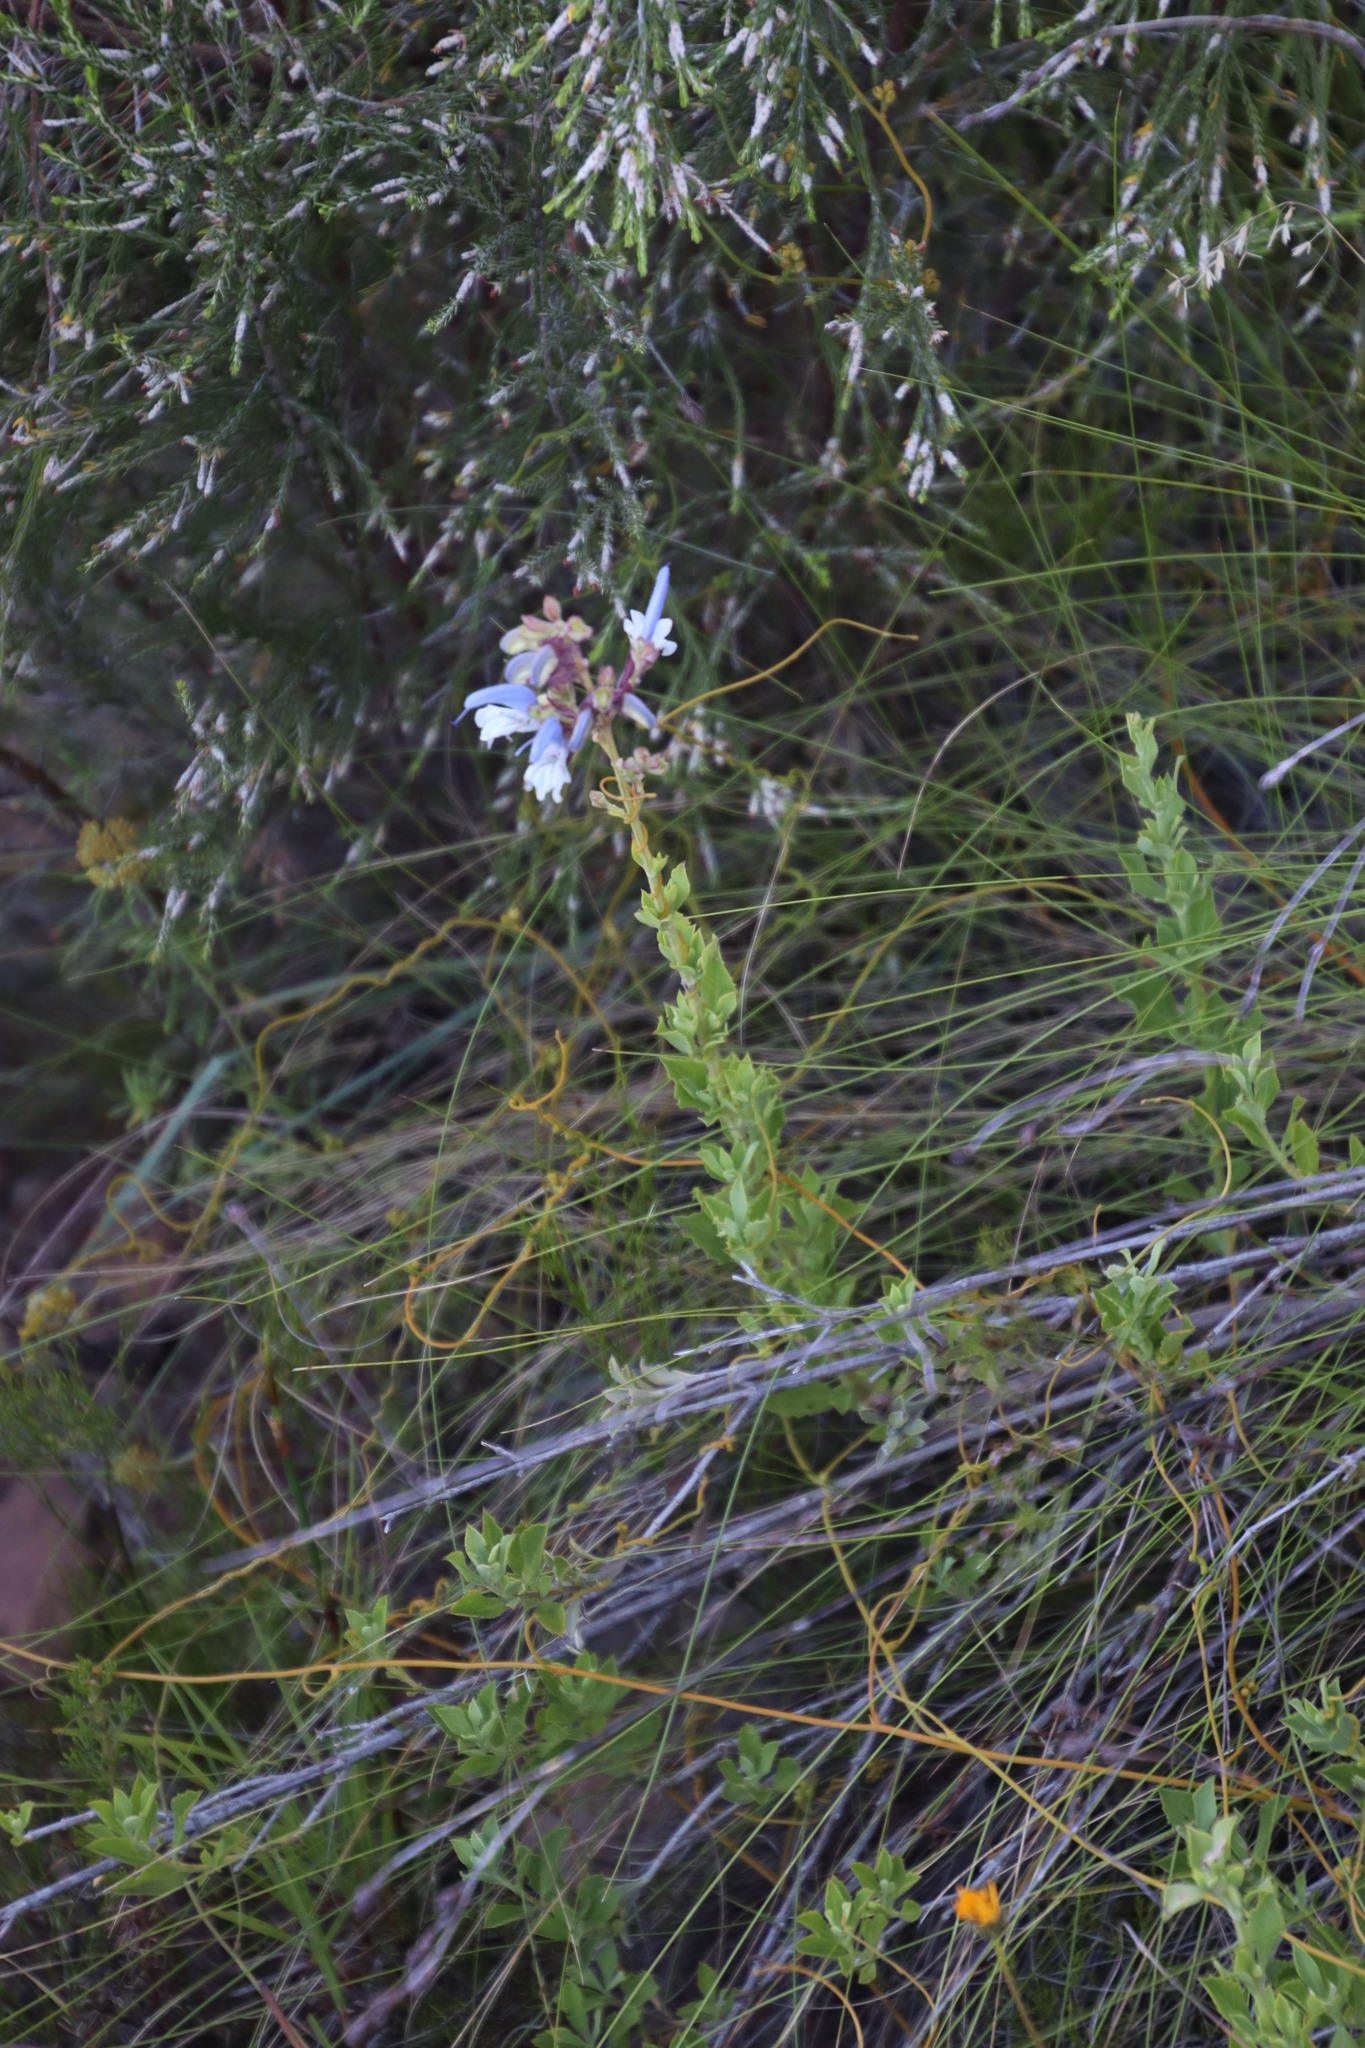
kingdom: Plantae
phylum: Tracheophyta
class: Magnoliopsida
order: Lamiales
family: Lamiaceae
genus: Salvia
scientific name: Salvia chamelaeagnea
